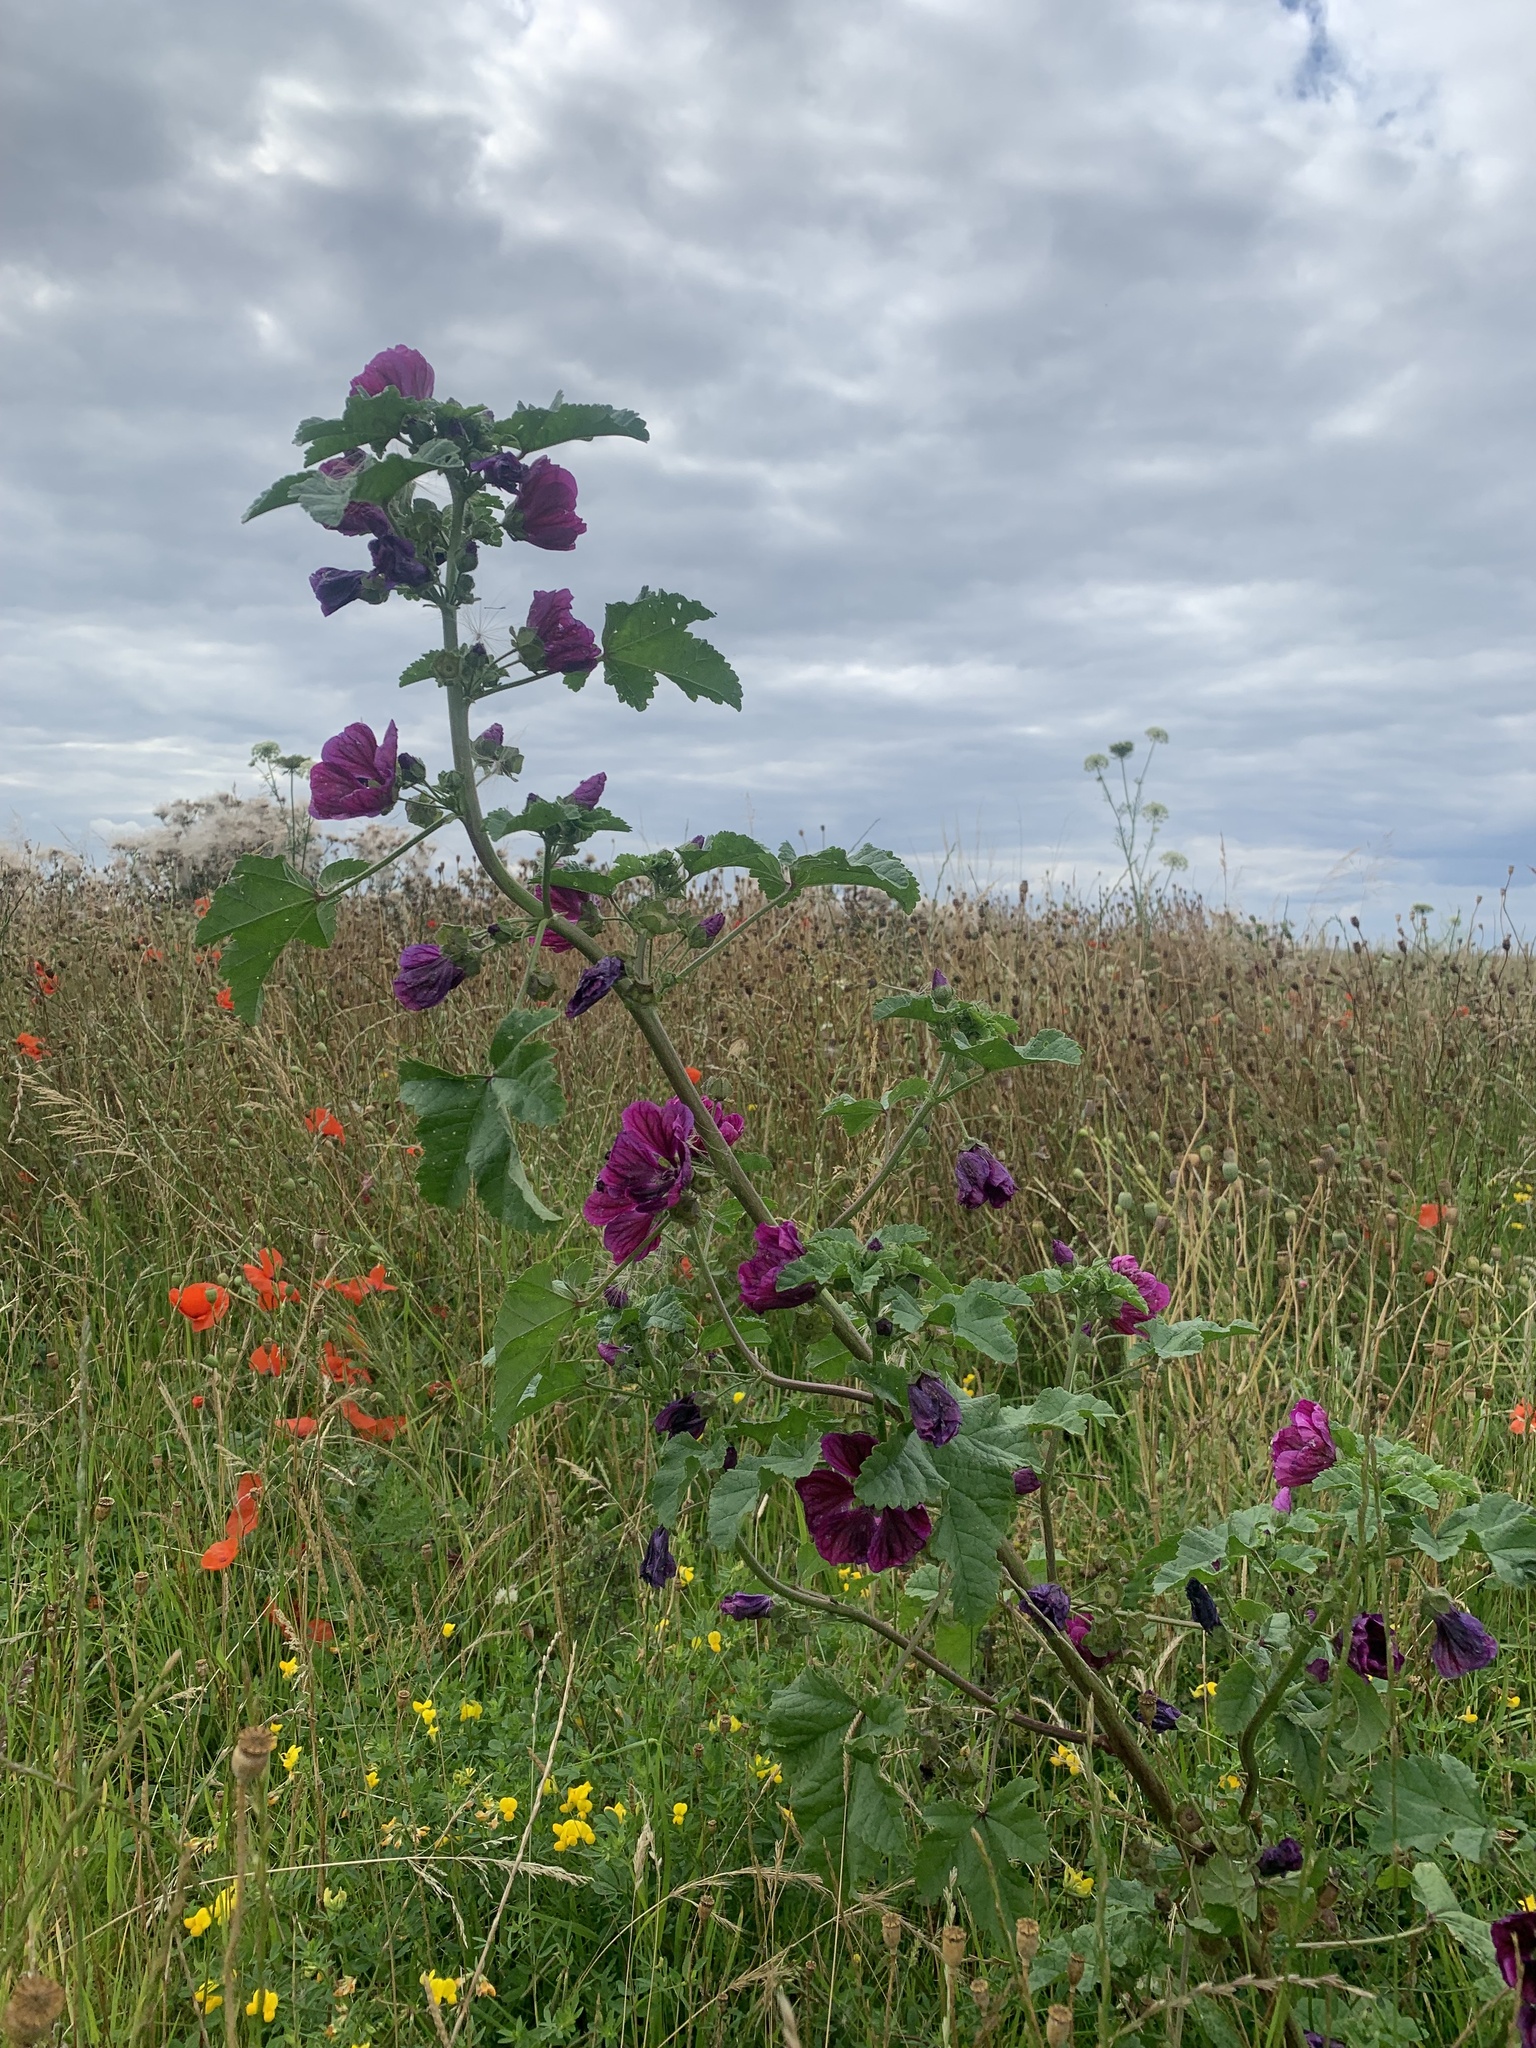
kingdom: Plantae
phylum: Tracheophyta
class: Magnoliopsida
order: Malvales
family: Malvaceae
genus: Malva
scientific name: Malva sylvestris
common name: Common mallow
